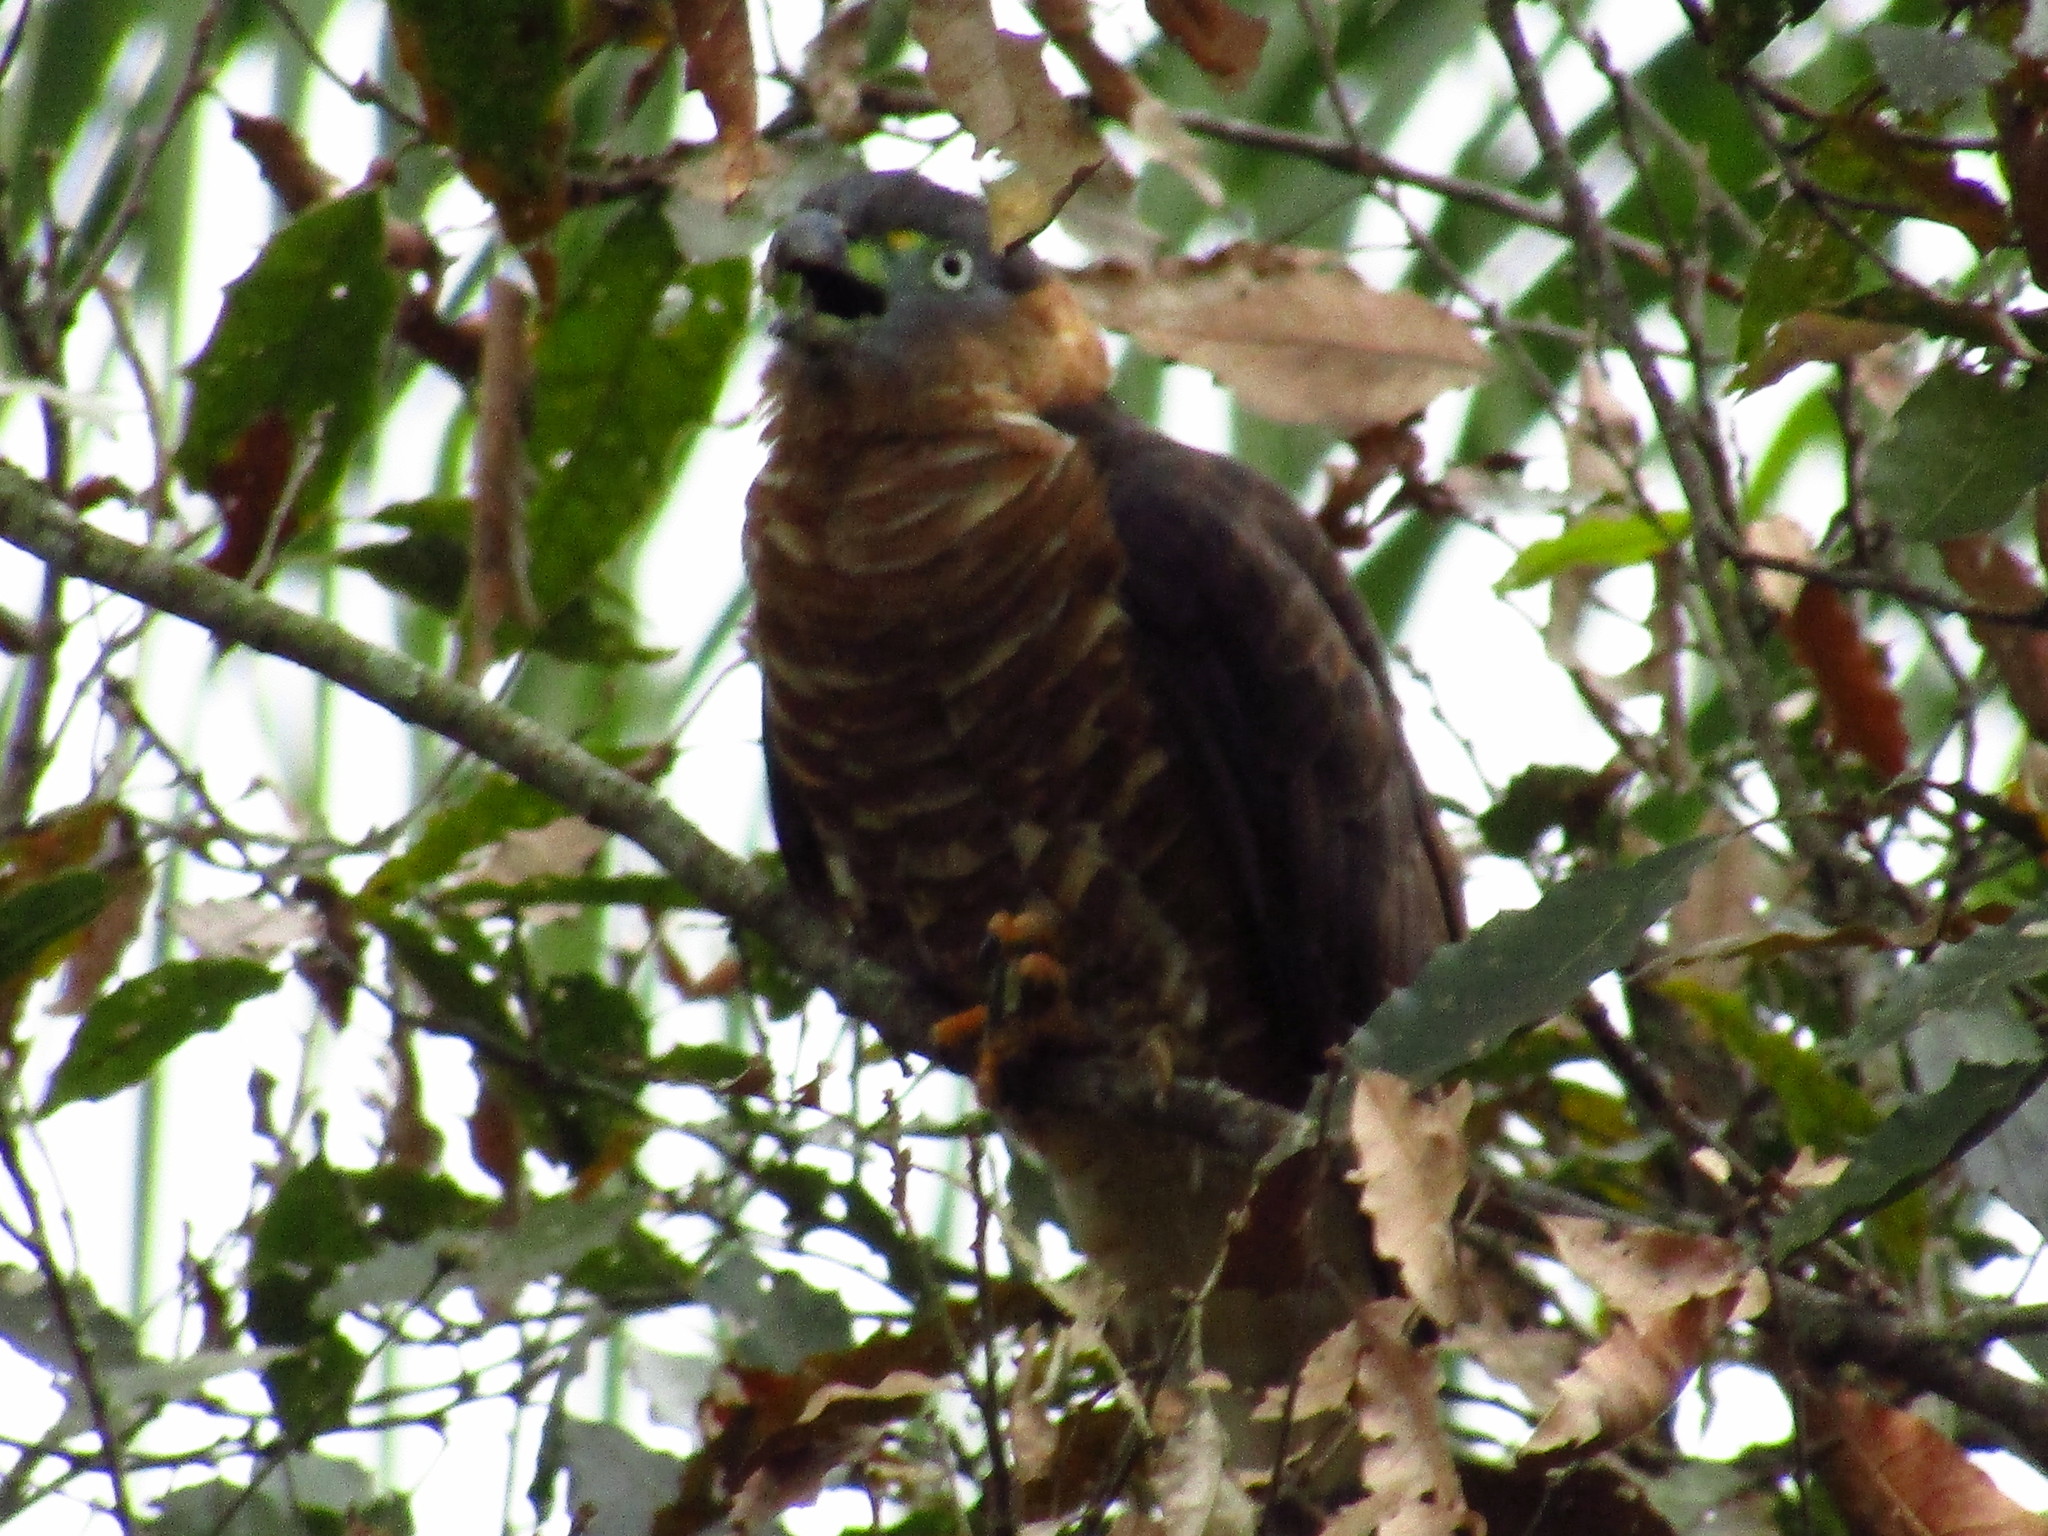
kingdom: Animalia
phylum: Chordata
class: Aves
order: Accipitriformes
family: Accipitridae
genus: Chondrohierax
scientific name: Chondrohierax uncinatus
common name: Hook-billed kite
